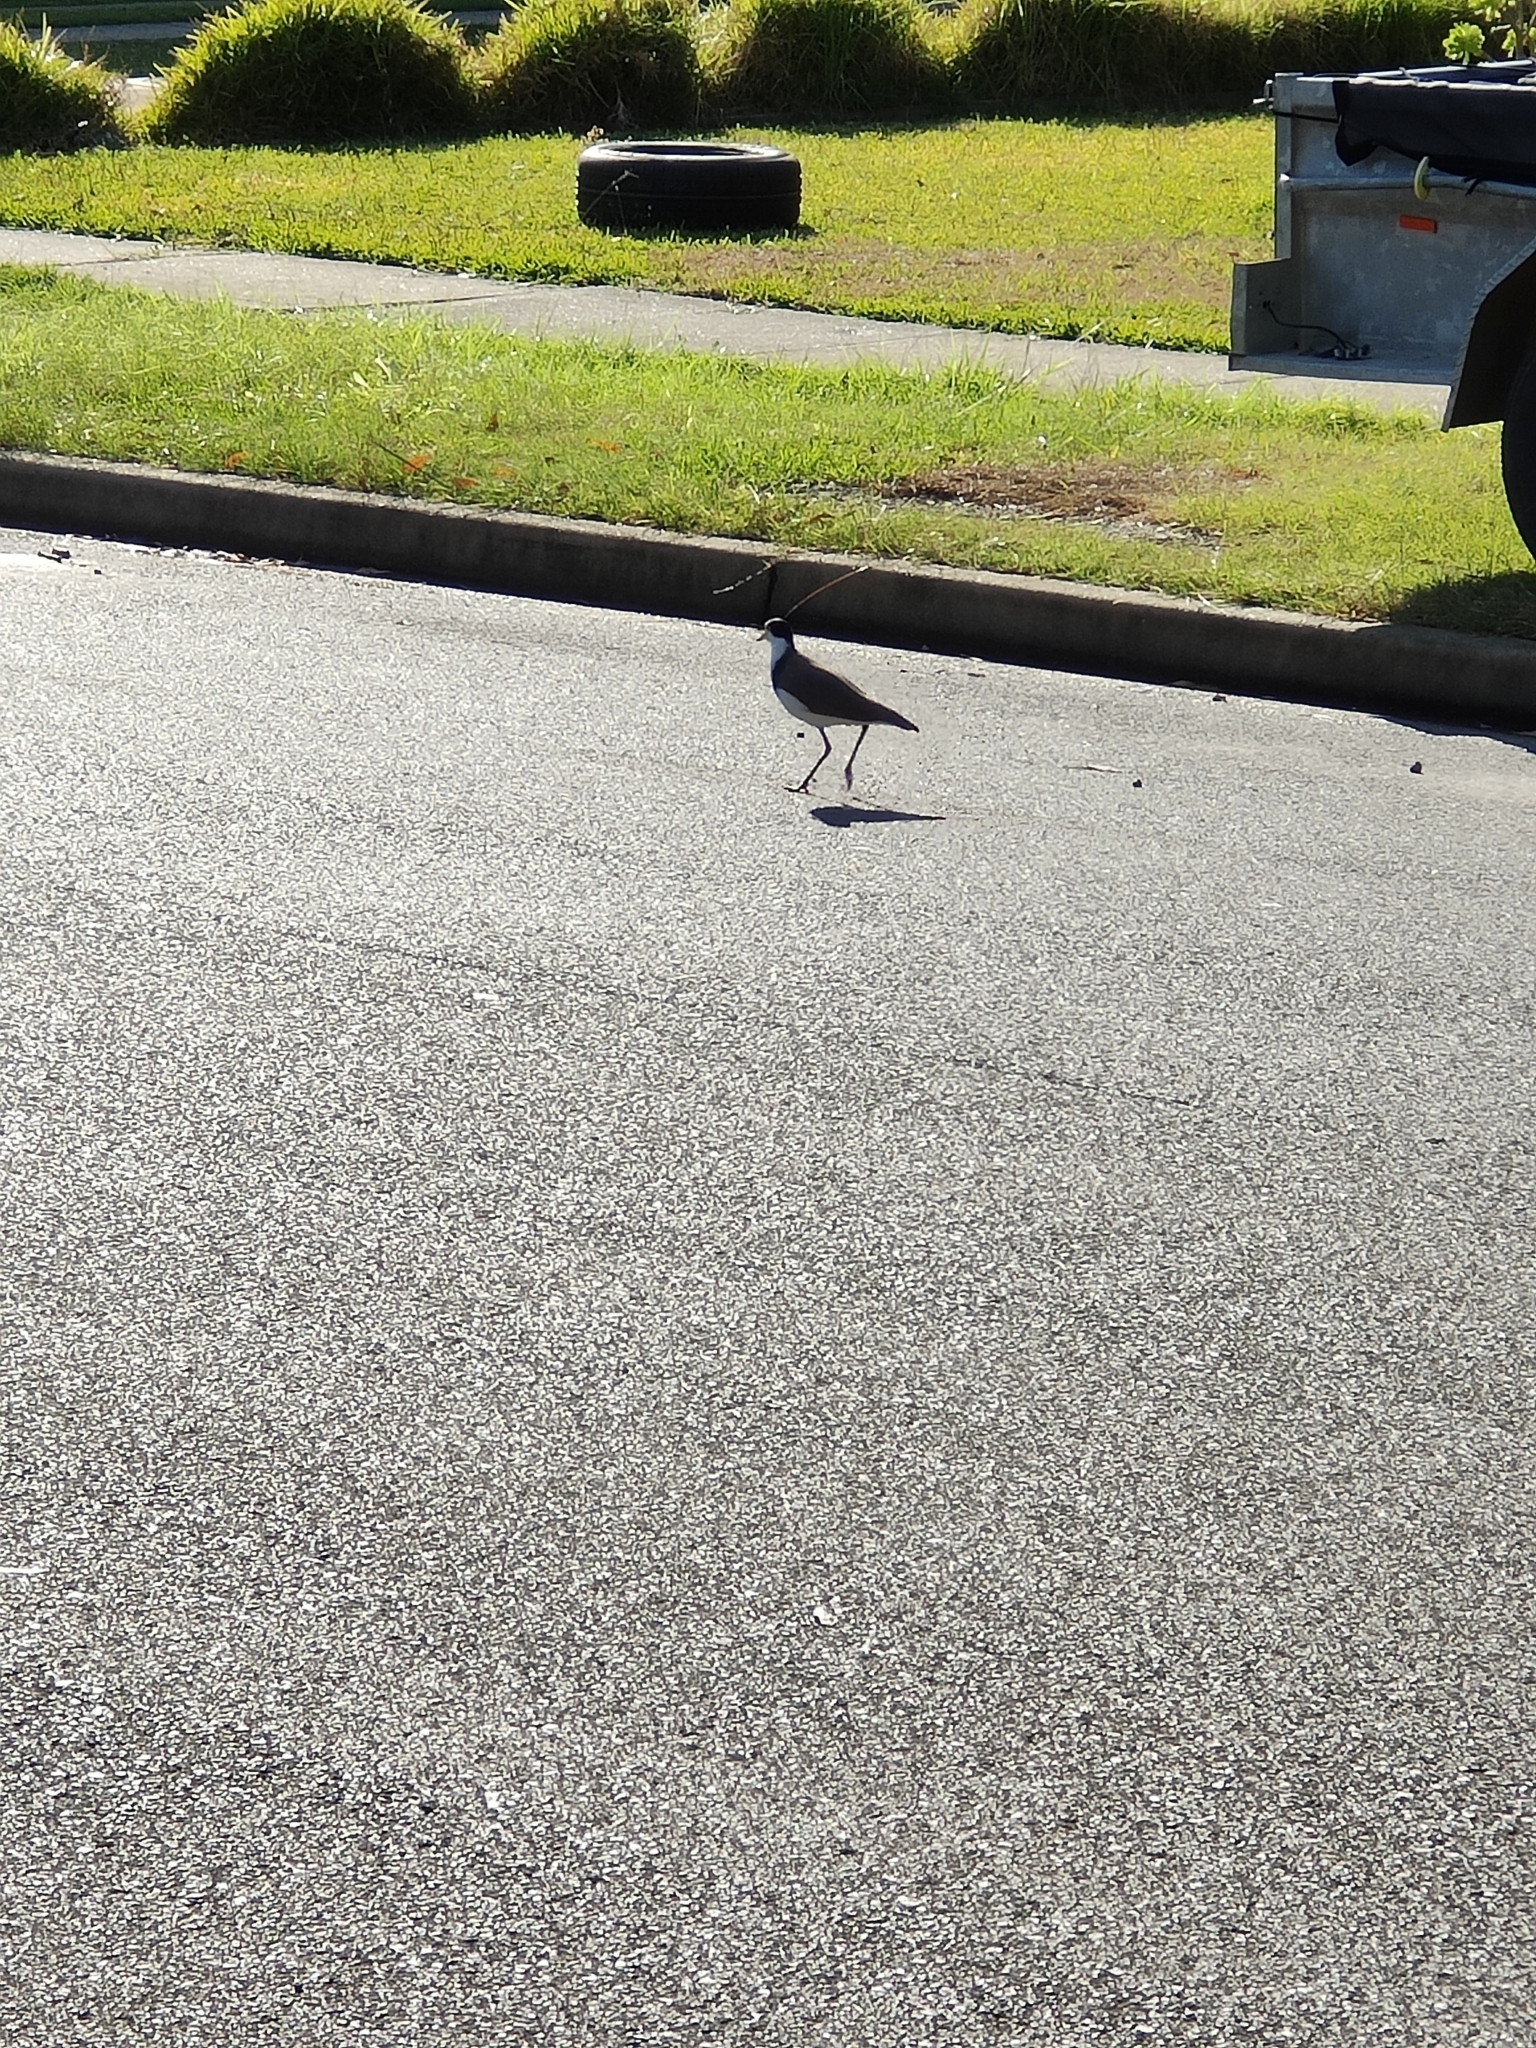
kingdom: Animalia
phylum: Chordata
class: Aves
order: Charadriiformes
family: Charadriidae
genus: Vanellus
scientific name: Vanellus miles
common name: Masked lapwing
